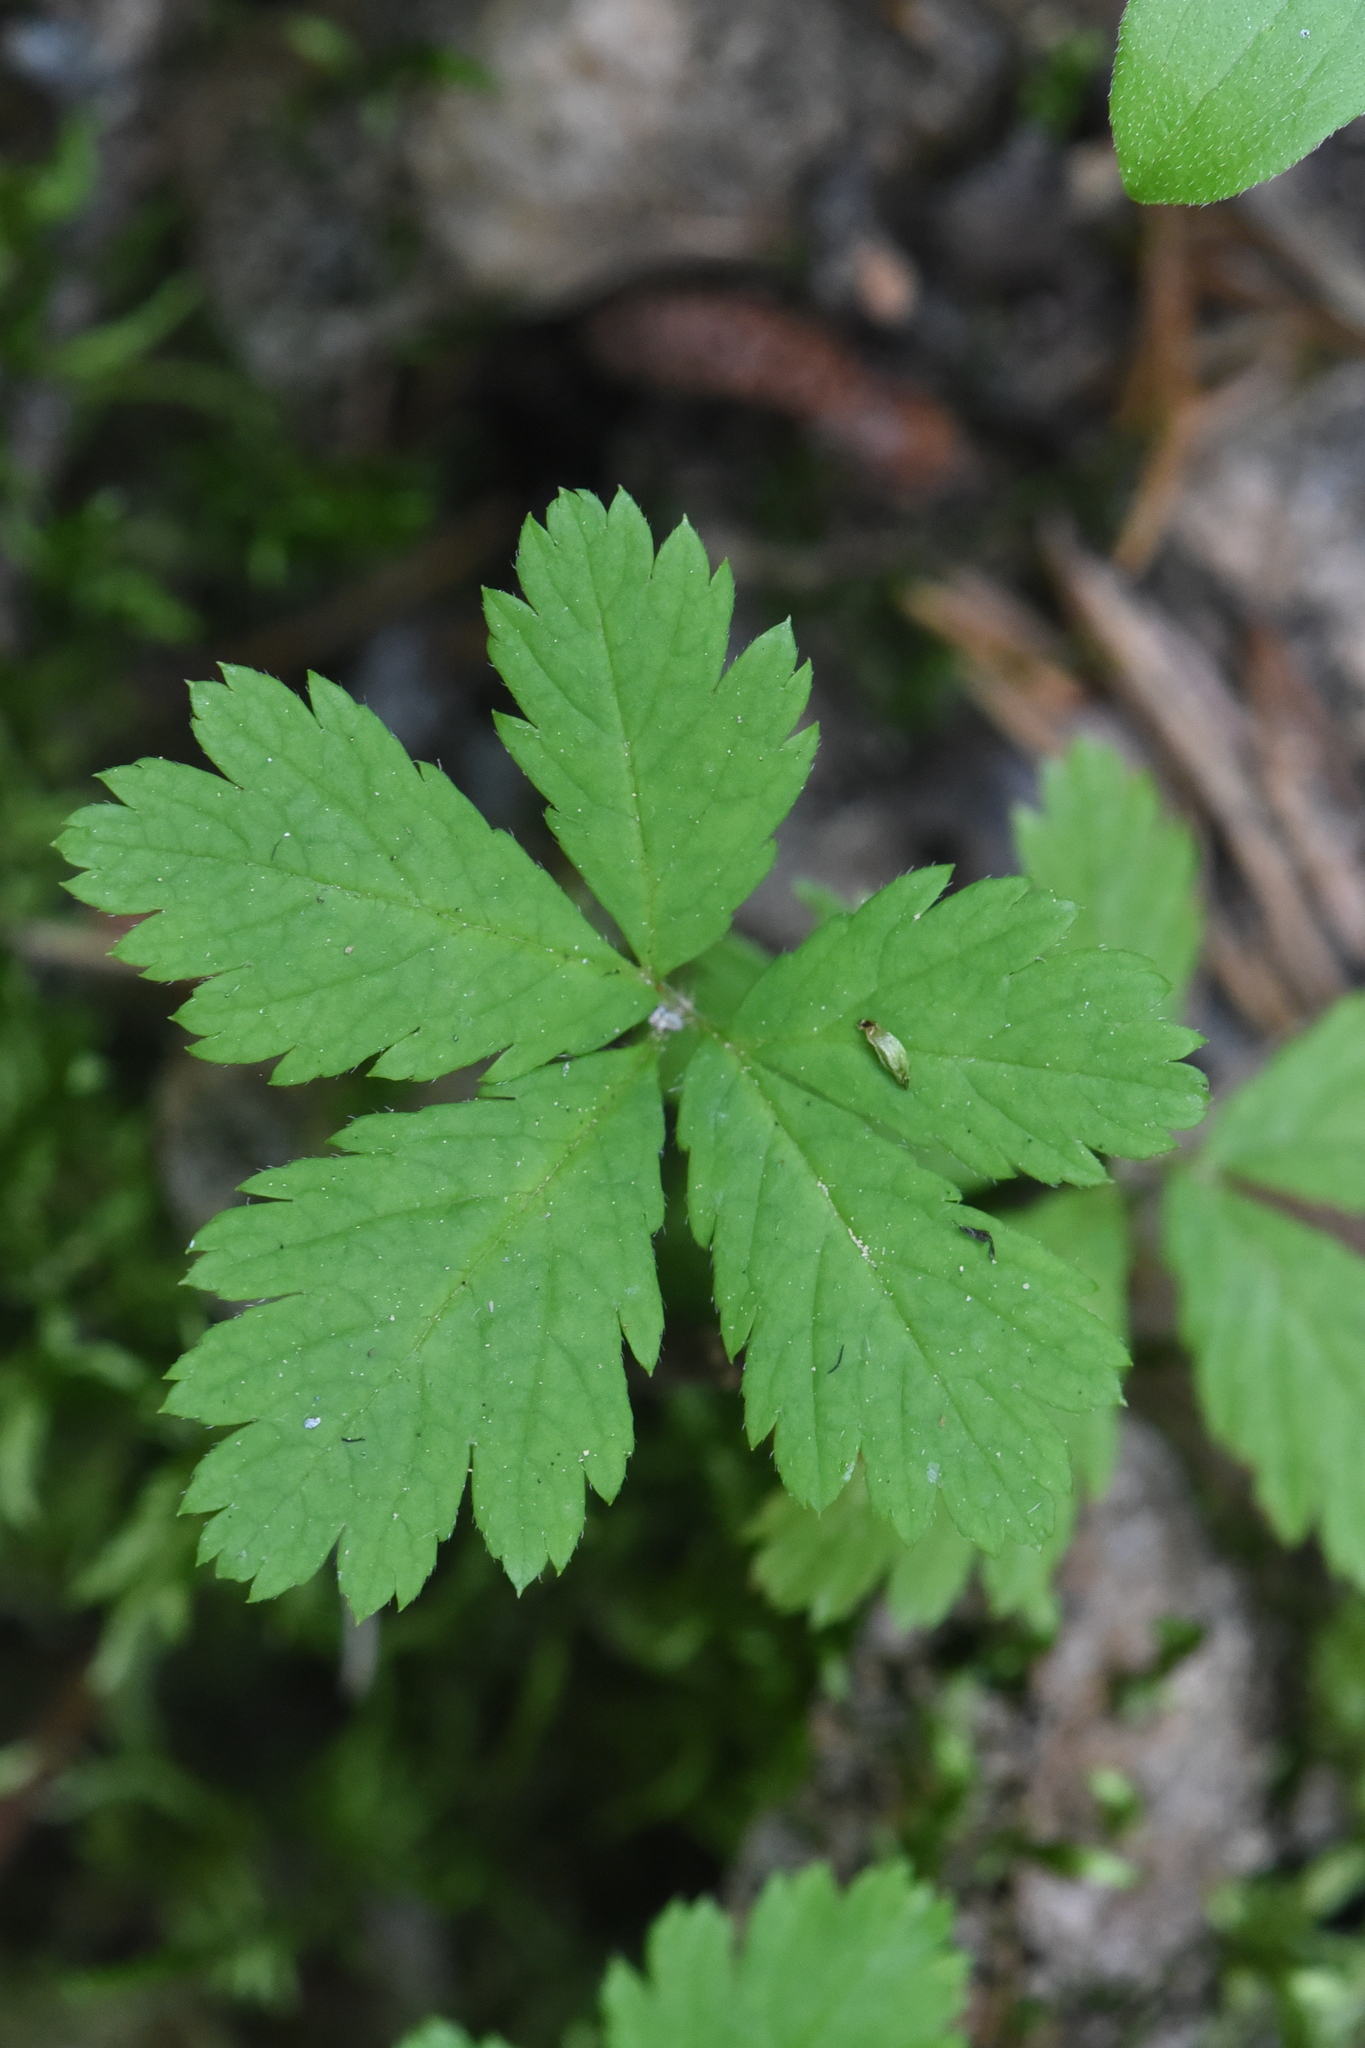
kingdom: Plantae
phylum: Tracheophyta
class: Magnoliopsida
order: Rosales
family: Rosaceae
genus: Rubus
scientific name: Rubus pedatus
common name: Creeping raspberry
